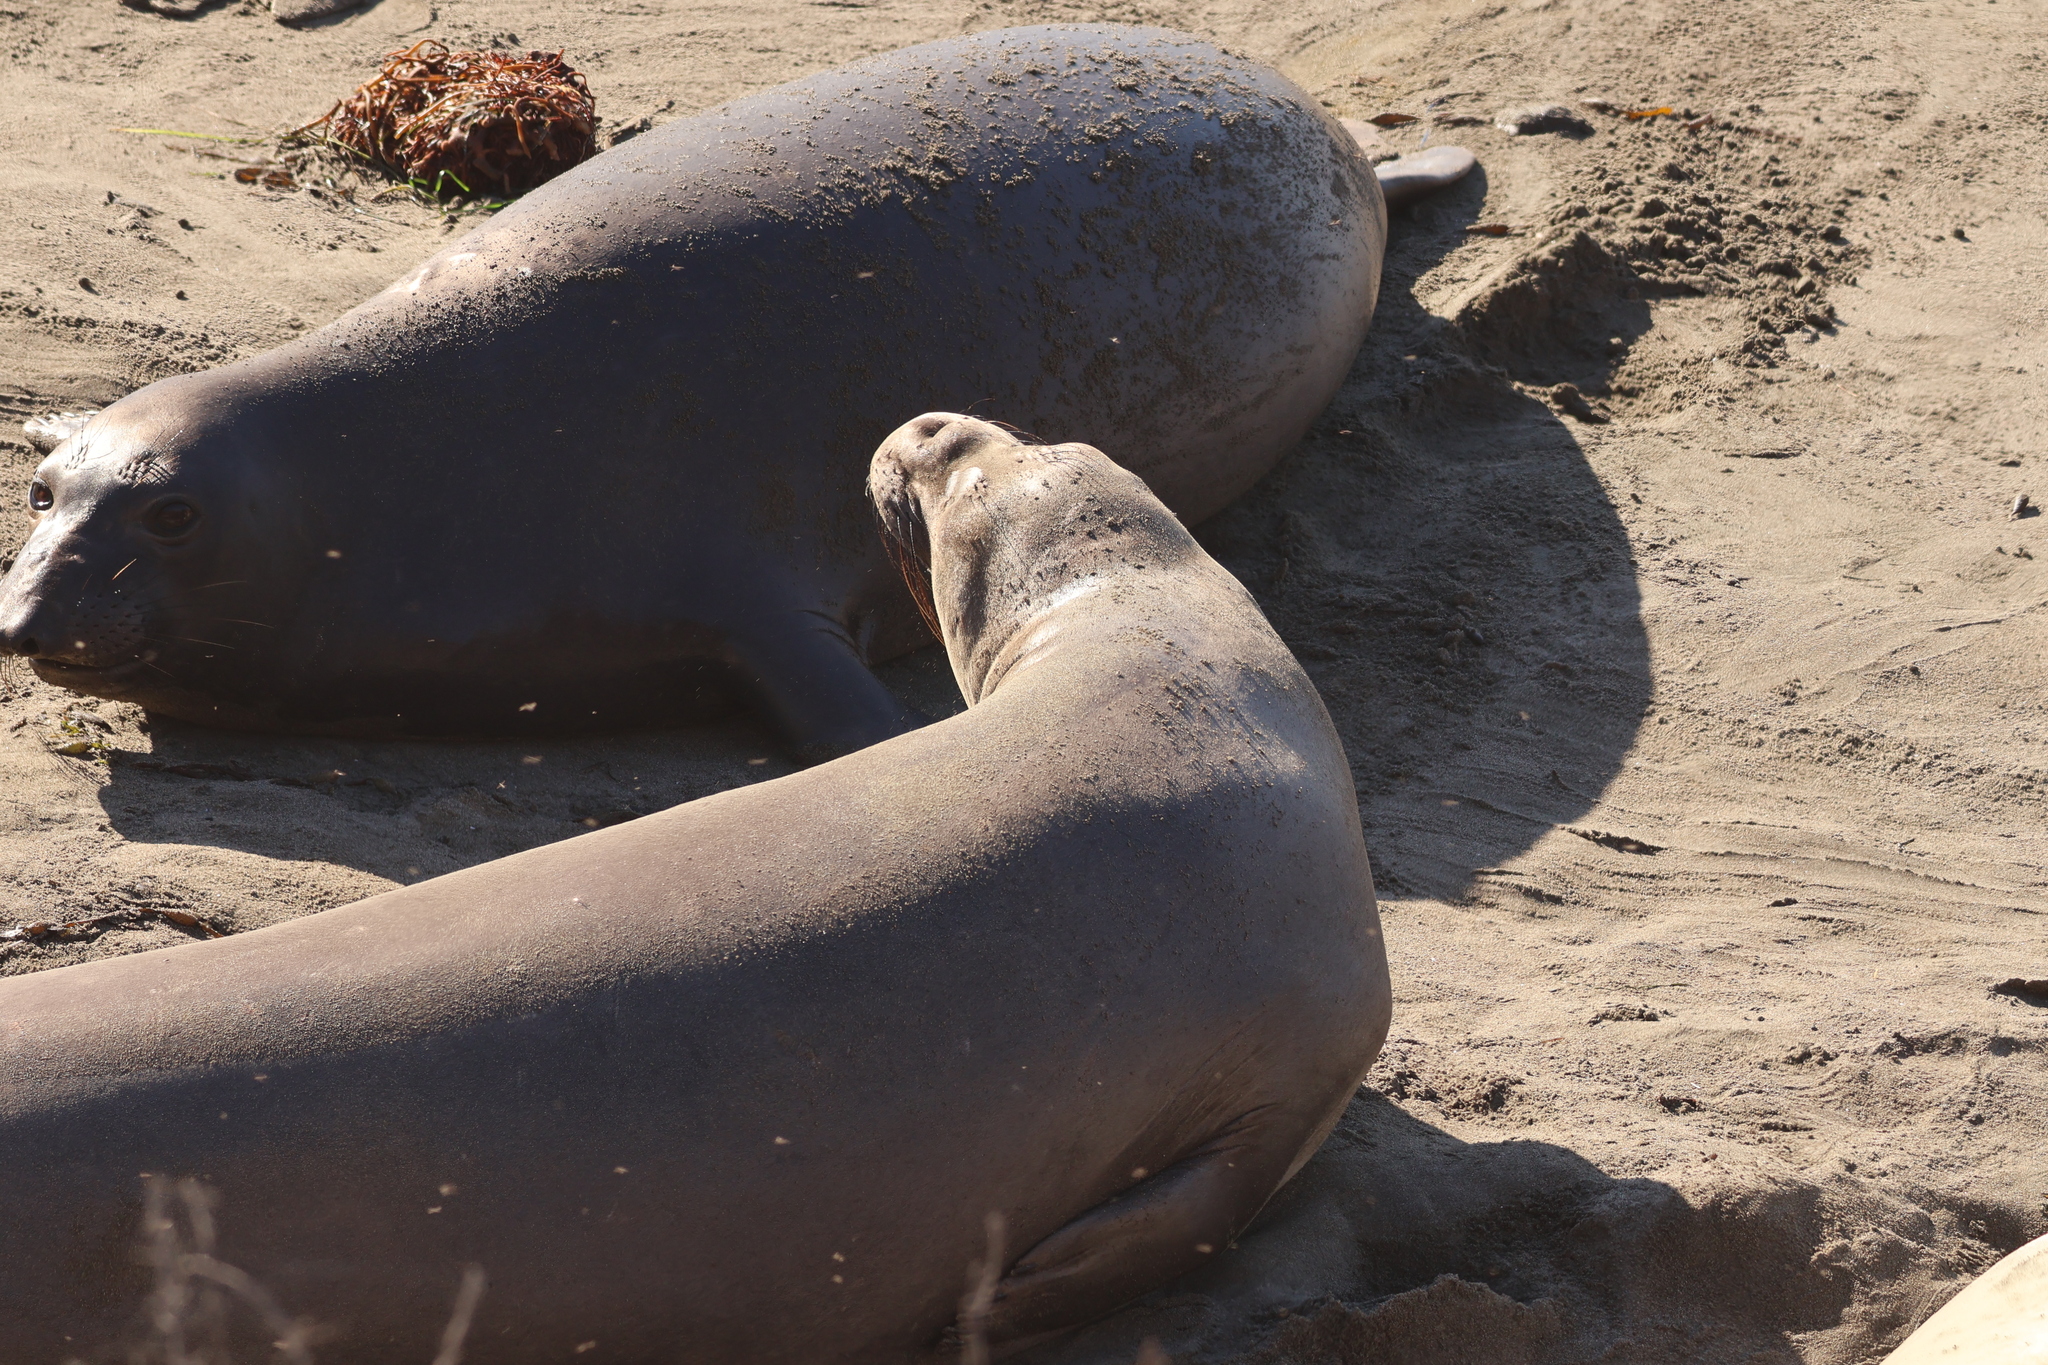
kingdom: Animalia
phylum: Chordata
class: Mammalia
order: Carnivora
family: Phocidae
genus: Mirounga
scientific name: Mirounga angustirostris
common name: Northern elephant seal
